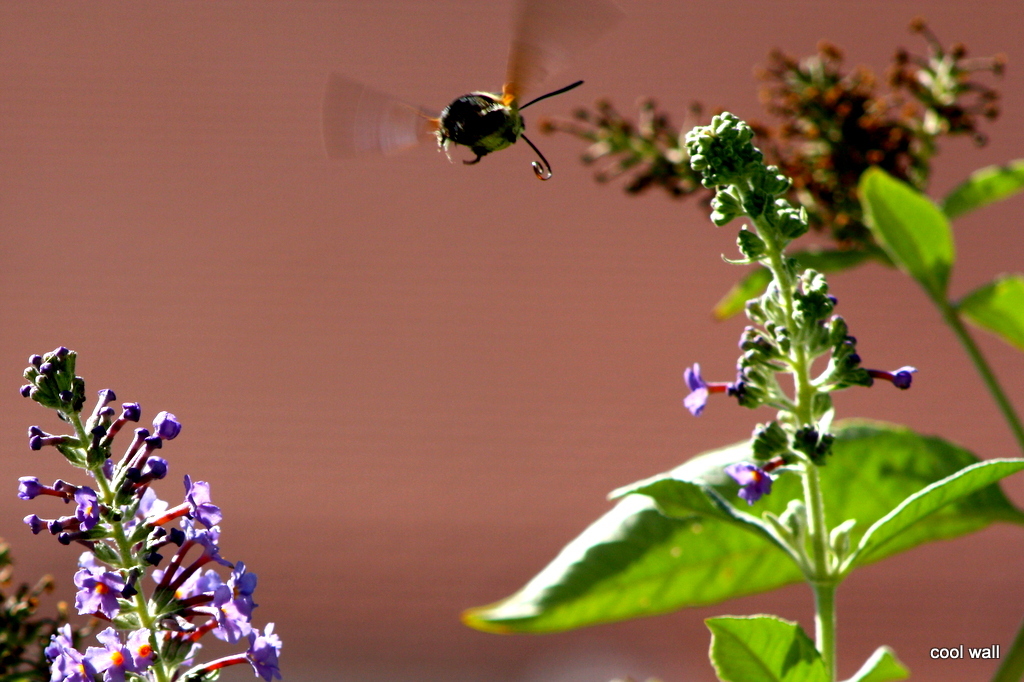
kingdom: Animalia
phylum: Arthropoda
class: Insecta
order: Lepidoptera
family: Sphingidae
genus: Macroglossum
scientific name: Macroglossum stellatarum
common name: Humming-bird hawk-moth
